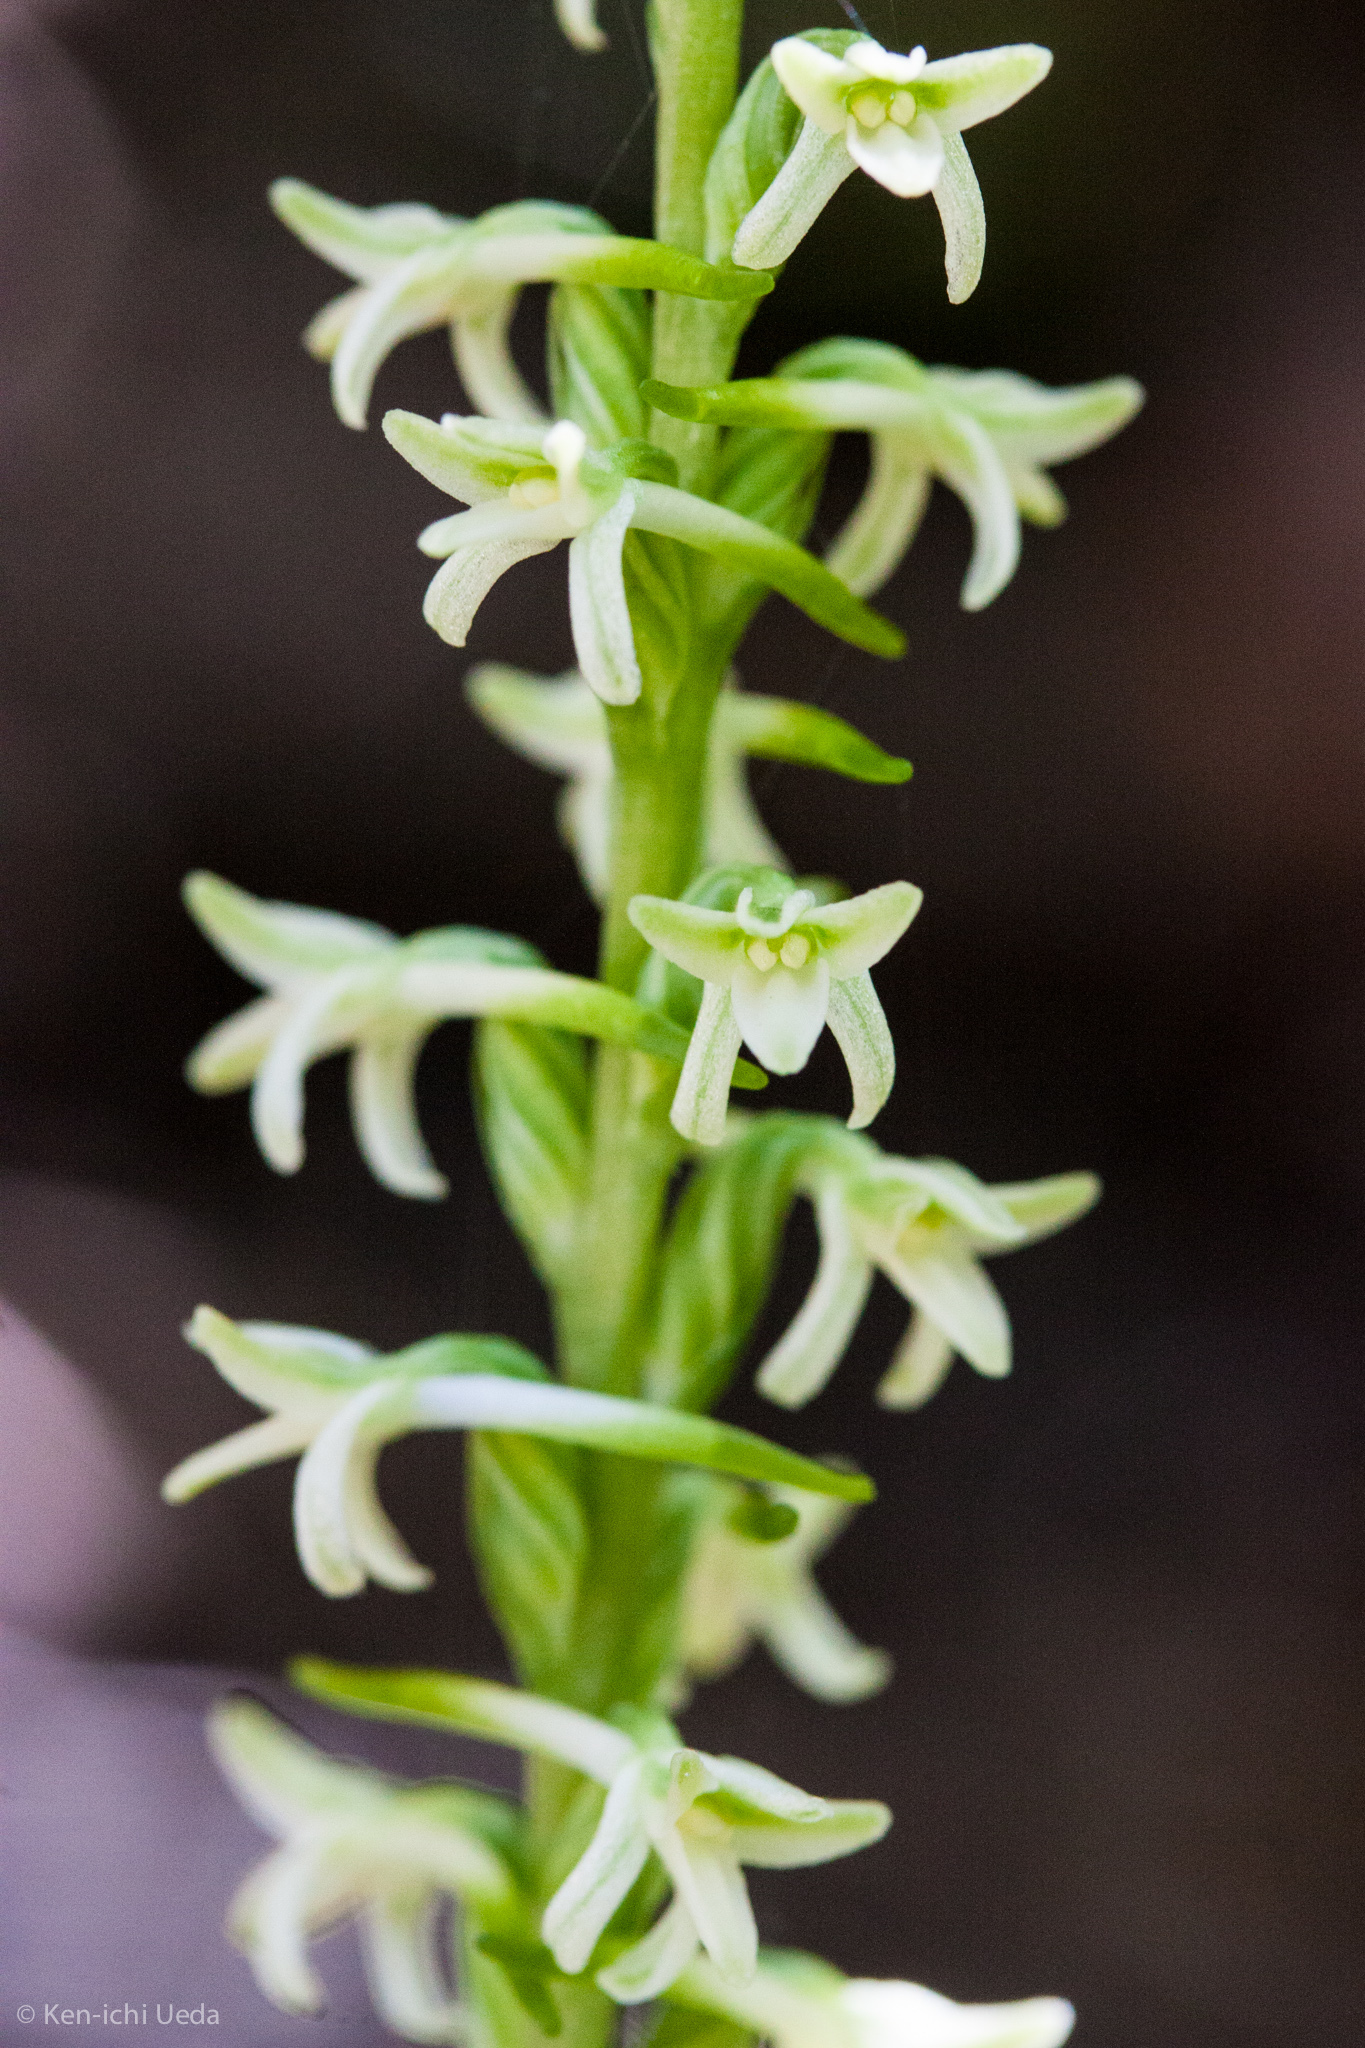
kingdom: Plantae
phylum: Tracheophyta
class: Liliopsida
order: Asparagales
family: Orchidaceae
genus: Platanthera
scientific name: Platanthera transversa
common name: Royal rein orchid
